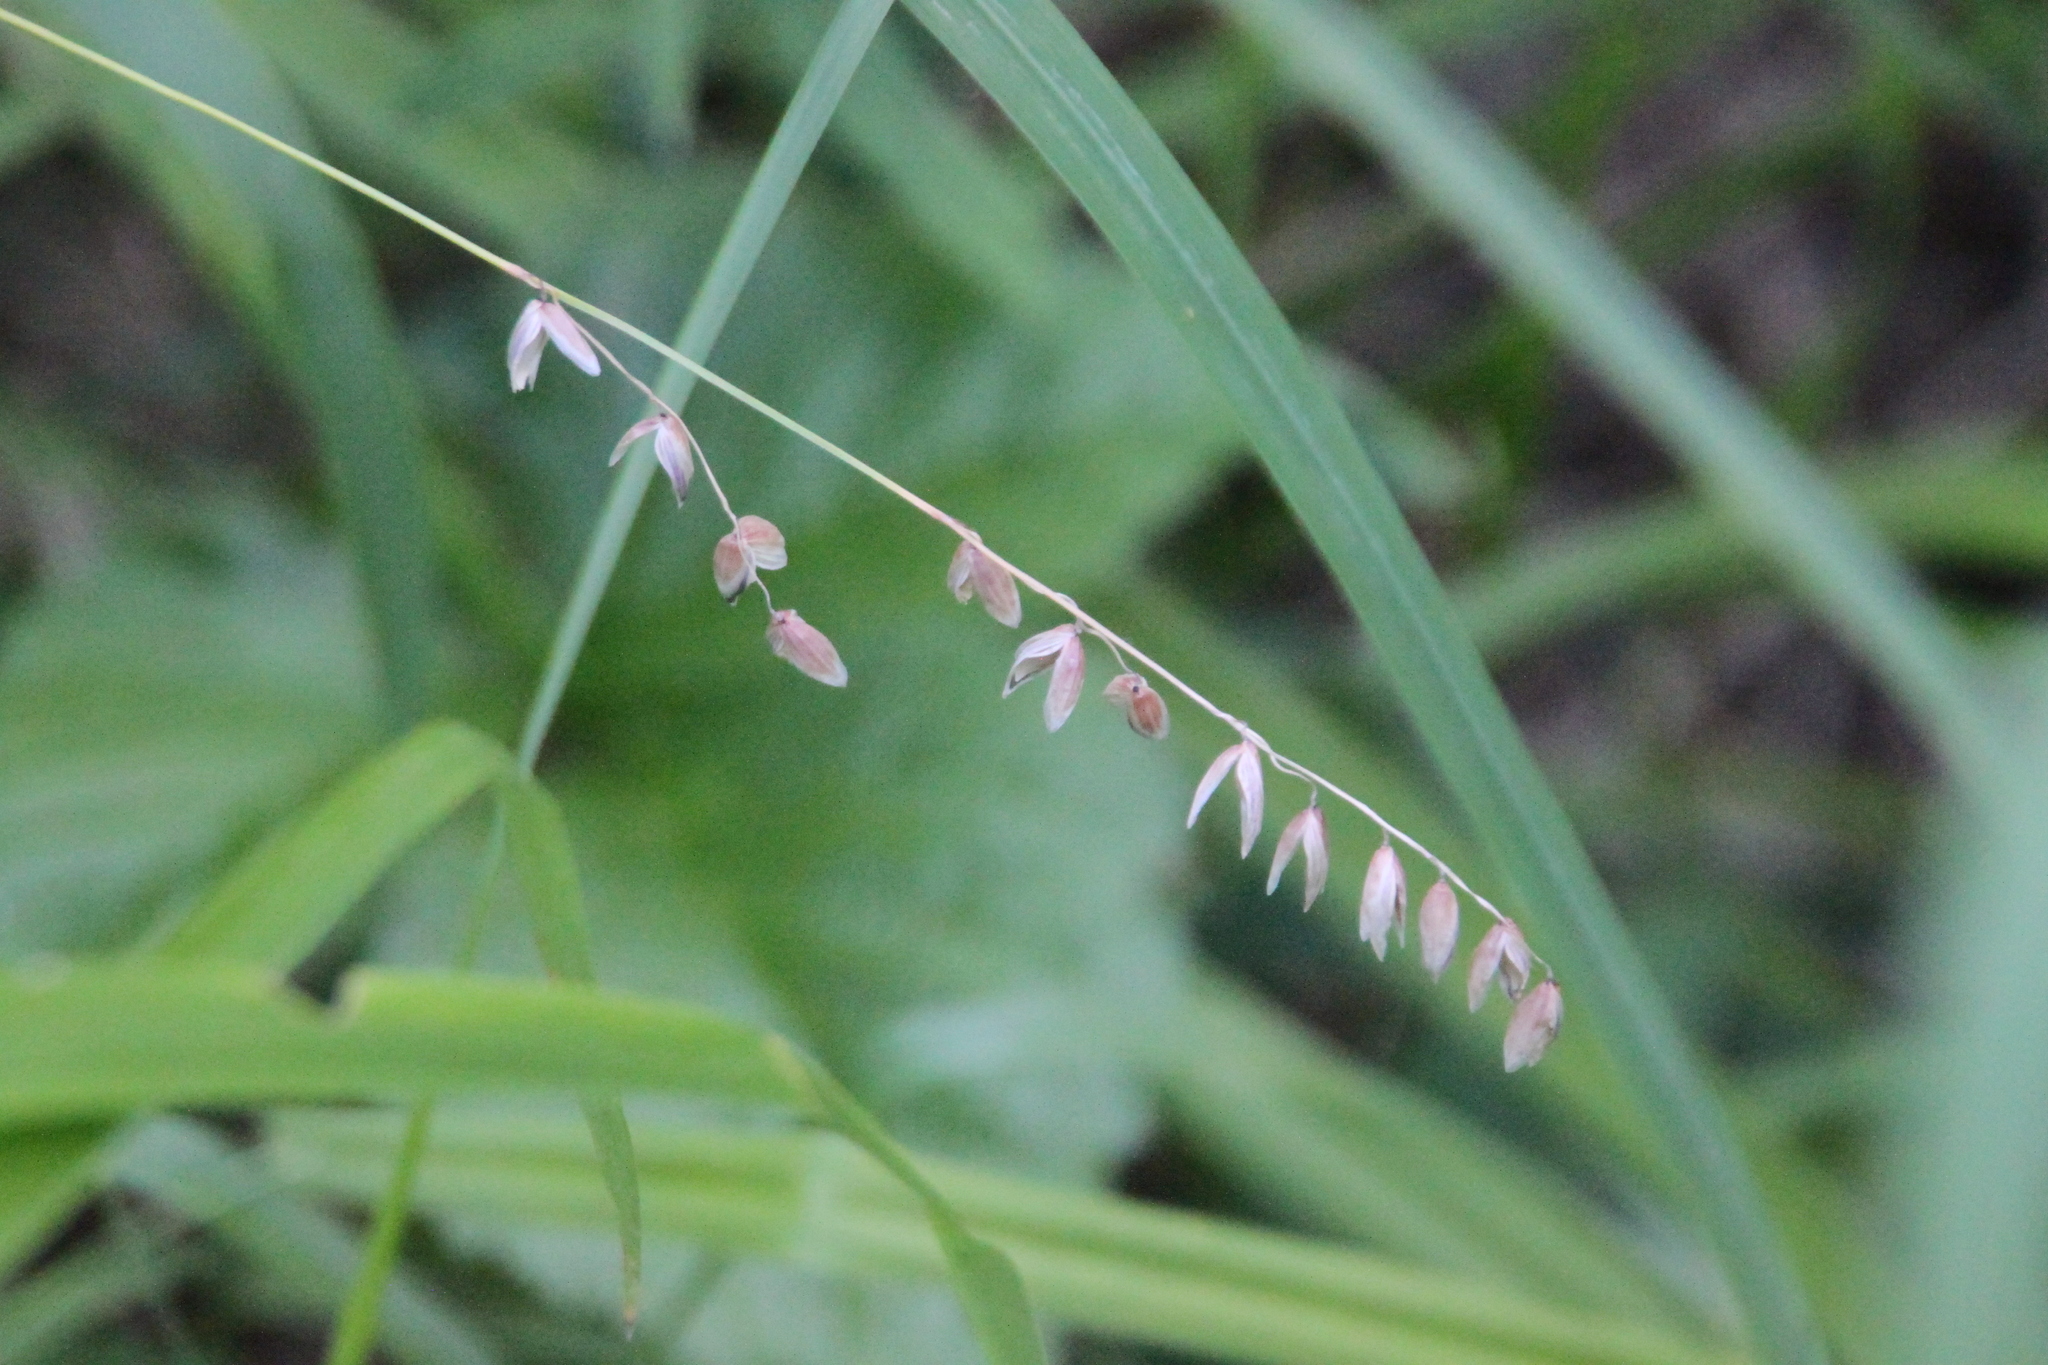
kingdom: Plantae
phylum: Tracheophyta
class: Liliopsida
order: Poales
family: Poaceae
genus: Melica
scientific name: Melica nutans
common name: Mountain melick
